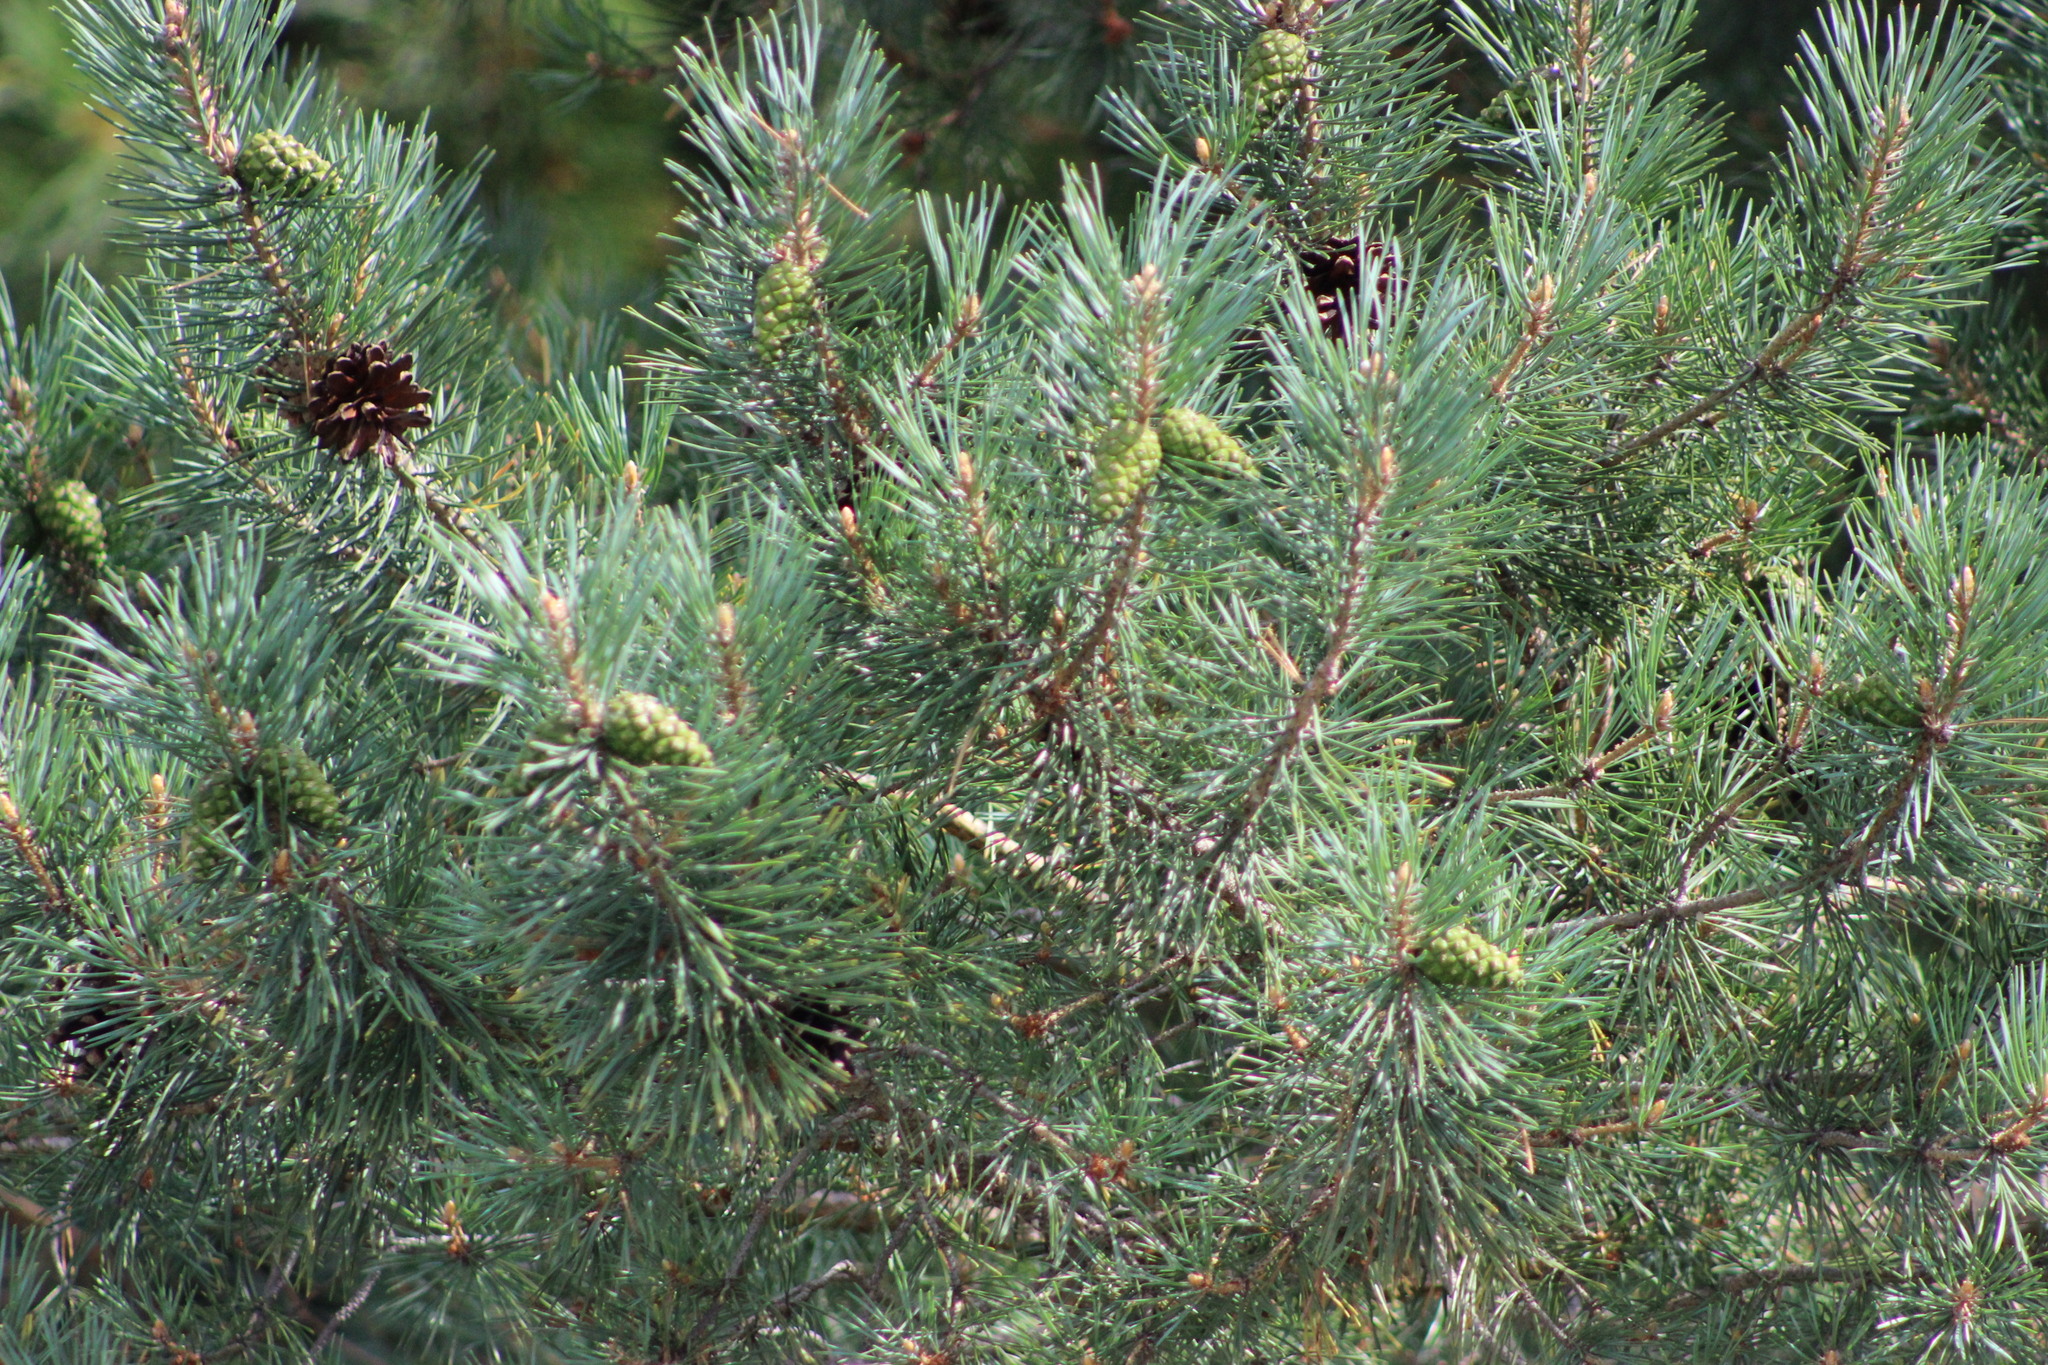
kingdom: Plantae
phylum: Tracheophyta
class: Pinopsida
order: Pinales
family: Pinaceae
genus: Pinus
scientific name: Pinus sylvestris
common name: Scots pine
